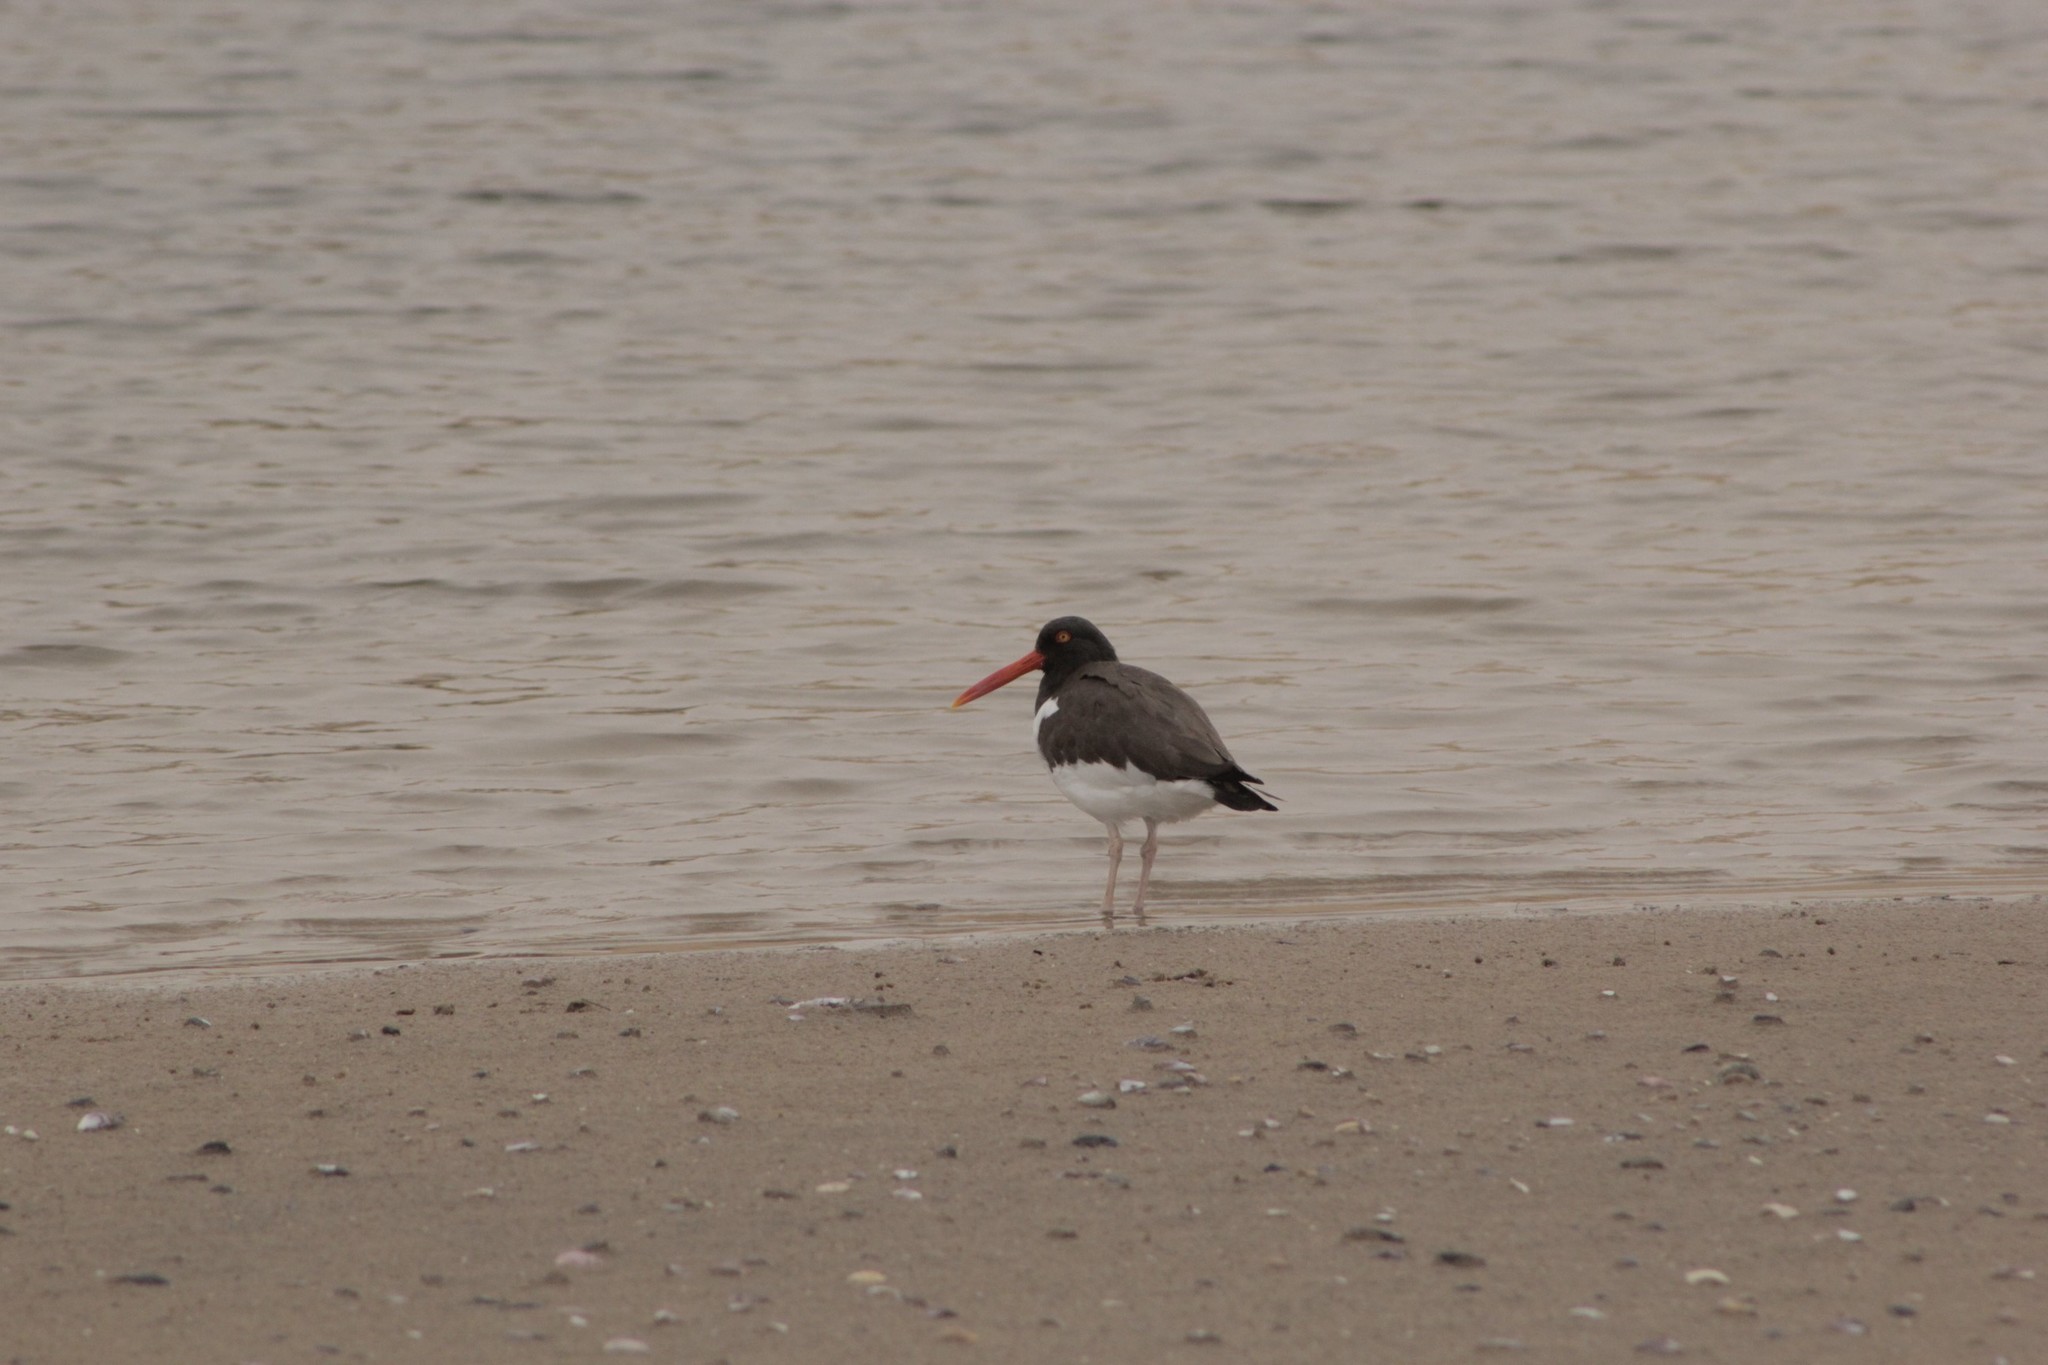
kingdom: Animalia
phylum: Chordata
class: Aves
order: Charadriiformes
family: Haematopodidae
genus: Haematopus
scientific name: Haematopus palliatus
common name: American oystercatcher
